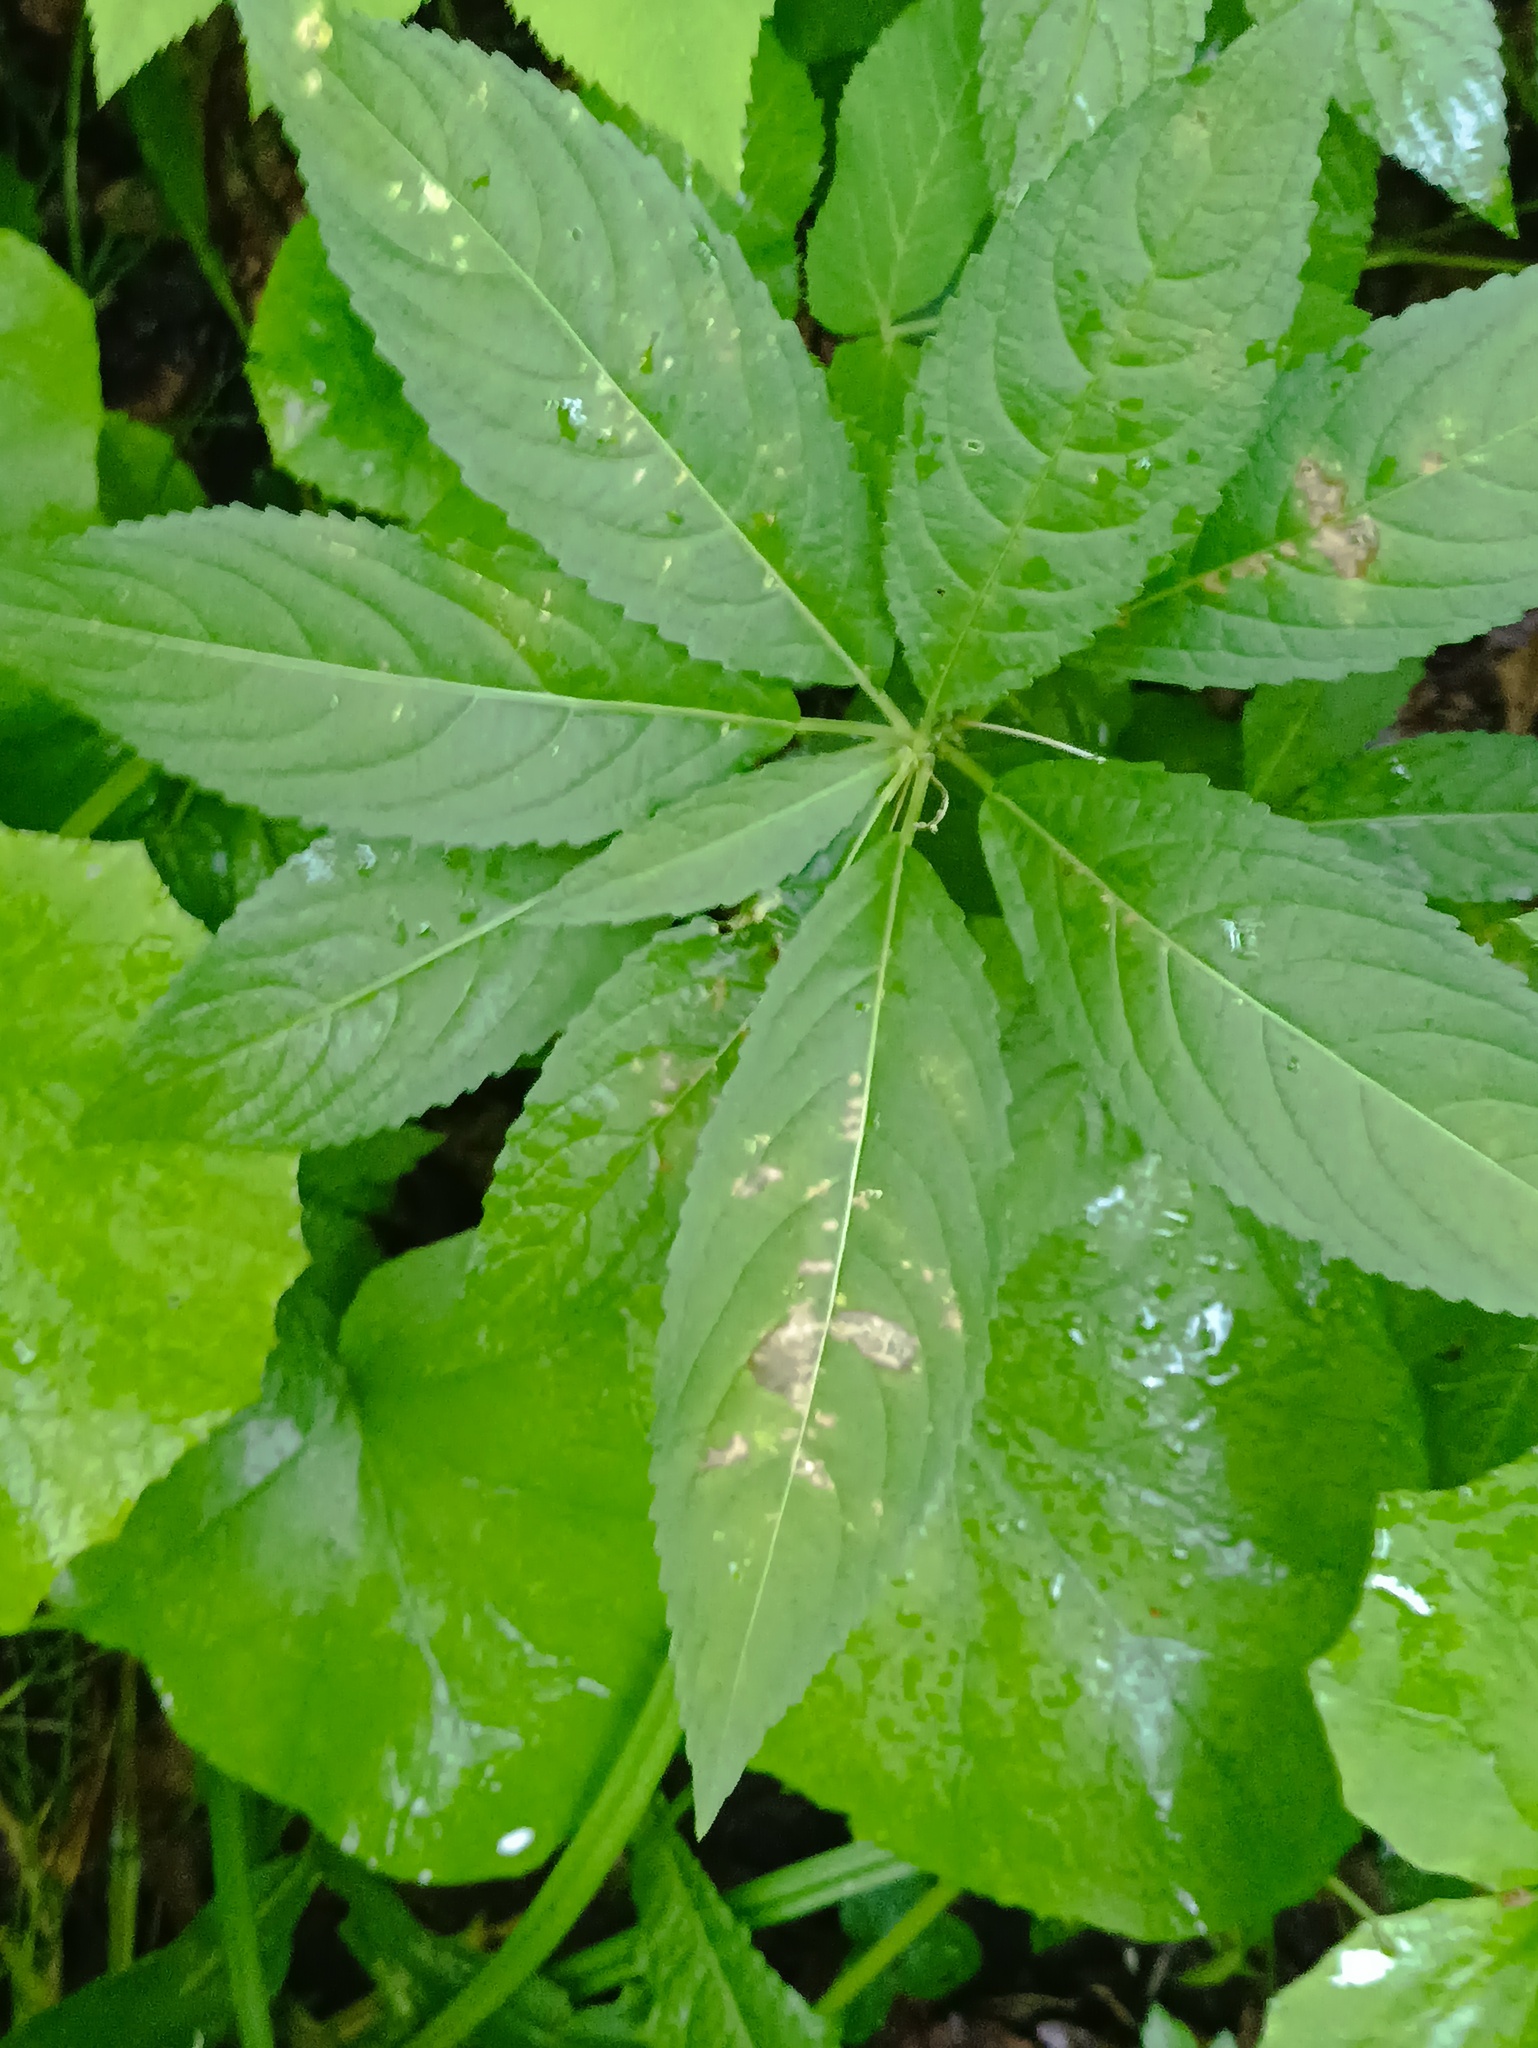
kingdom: Plantae
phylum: Tracheophyta
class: Magnoliopsida
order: Malpighiales
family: Euphorbiaceae
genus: Mercurialis
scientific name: Mercurialis perennis
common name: Dog mercury
